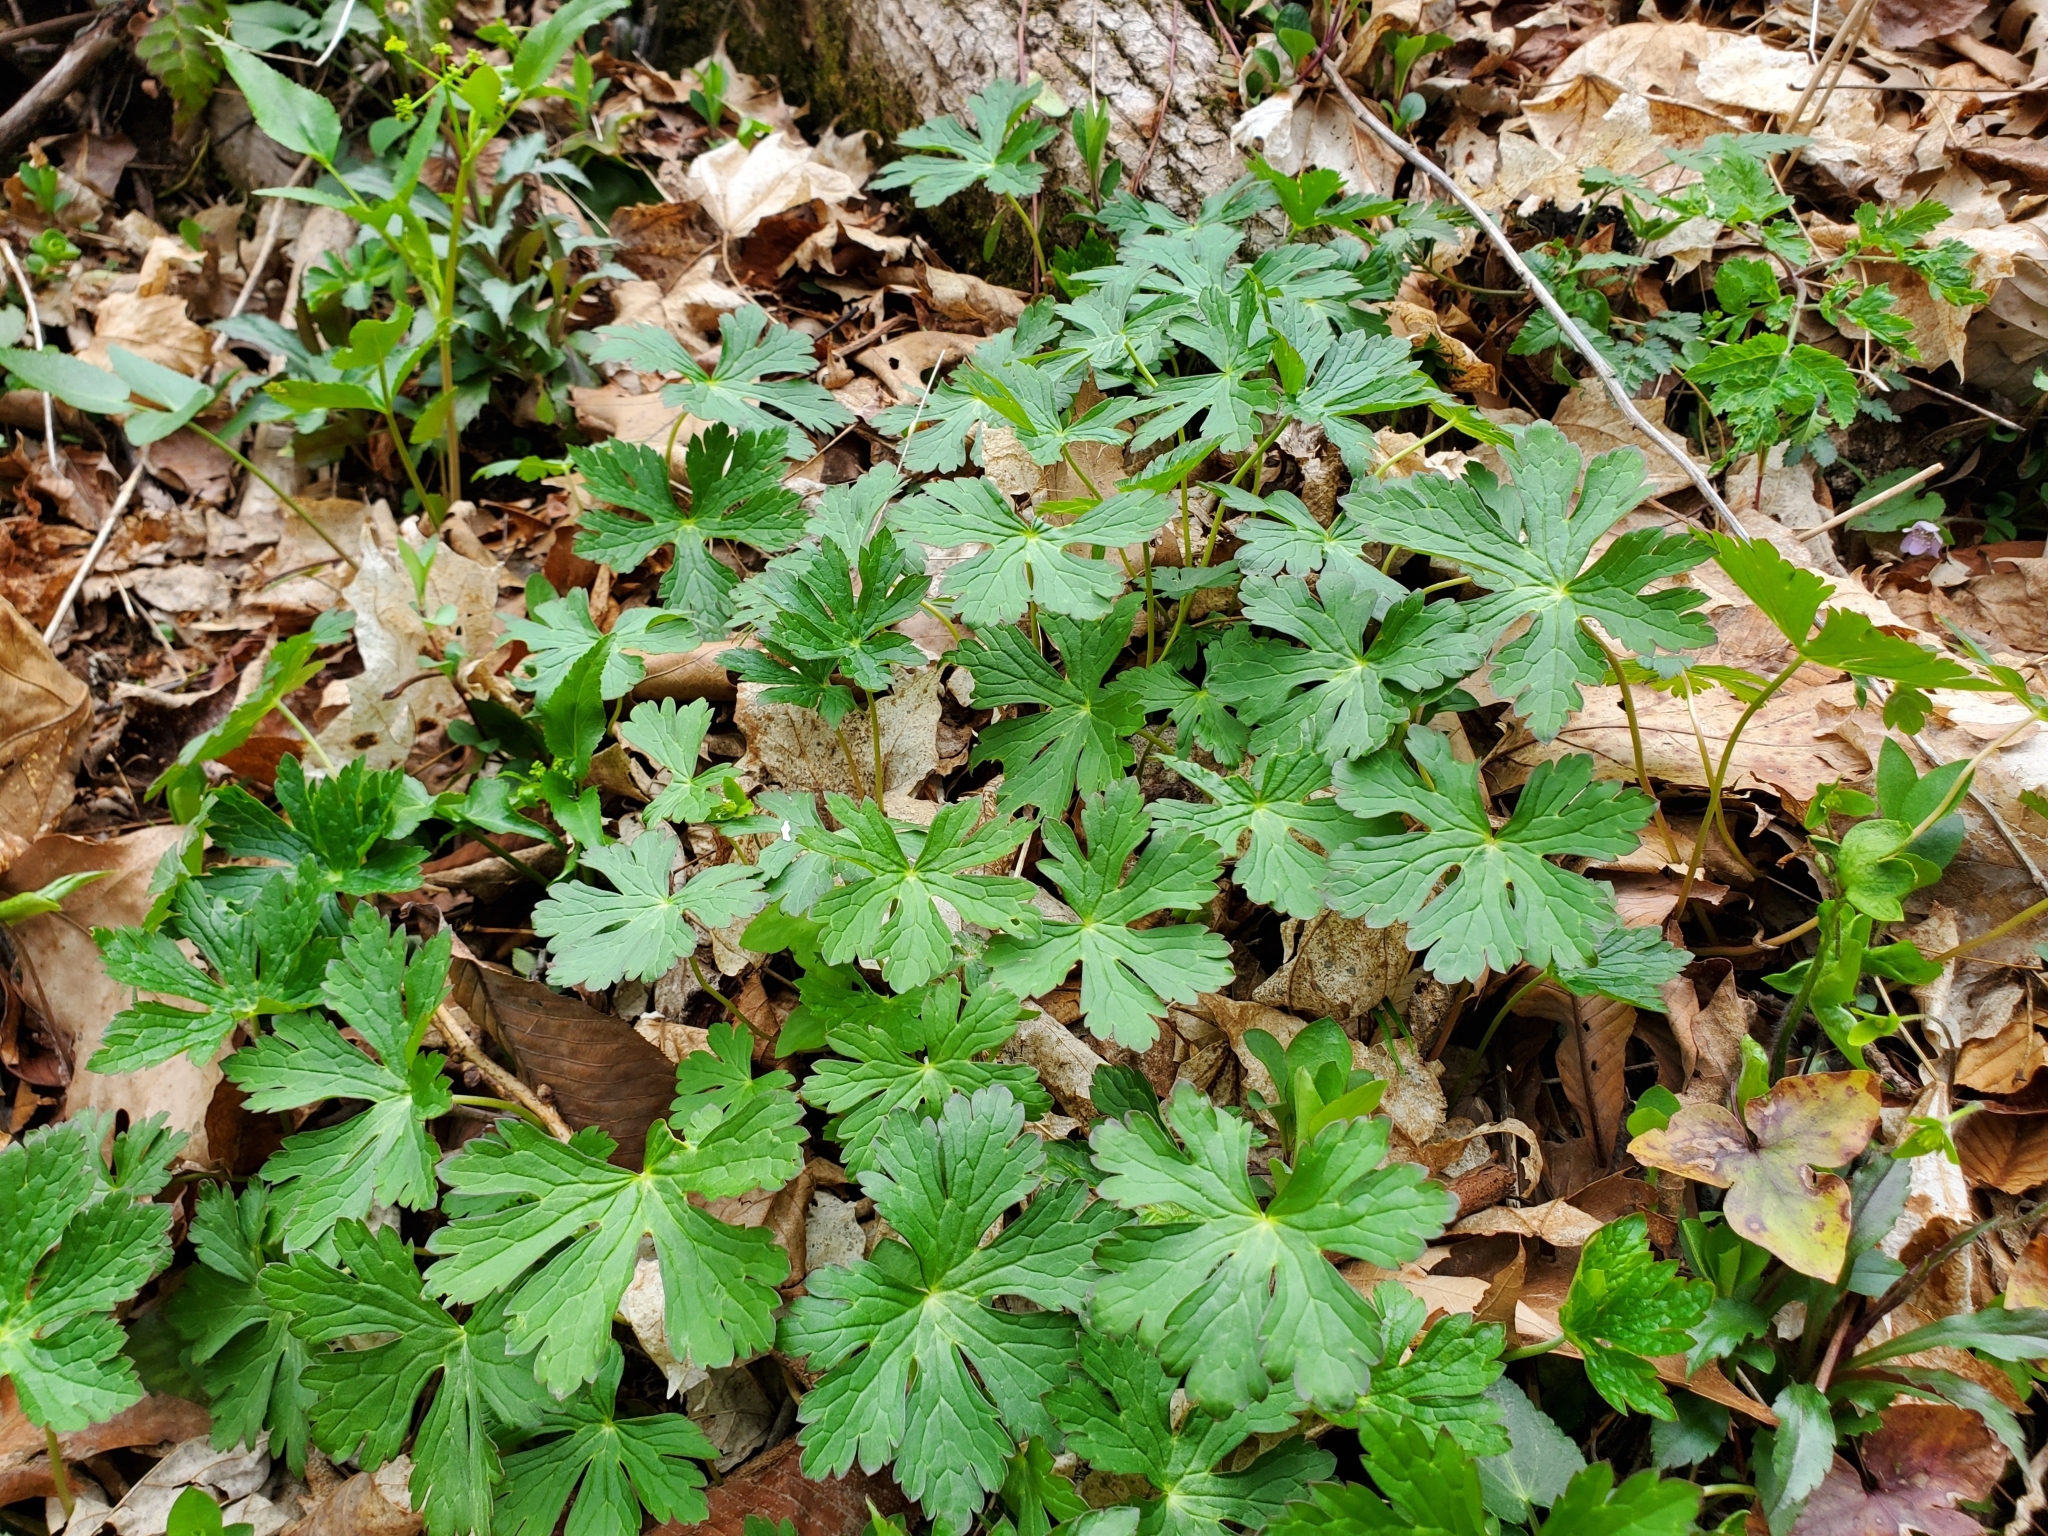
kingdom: Plantae
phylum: Tracheophyta
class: Magnoliopsida
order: Geraniales
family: Geraniaceae
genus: Geranium
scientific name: Geranium maculatum
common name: Spotted geranium
